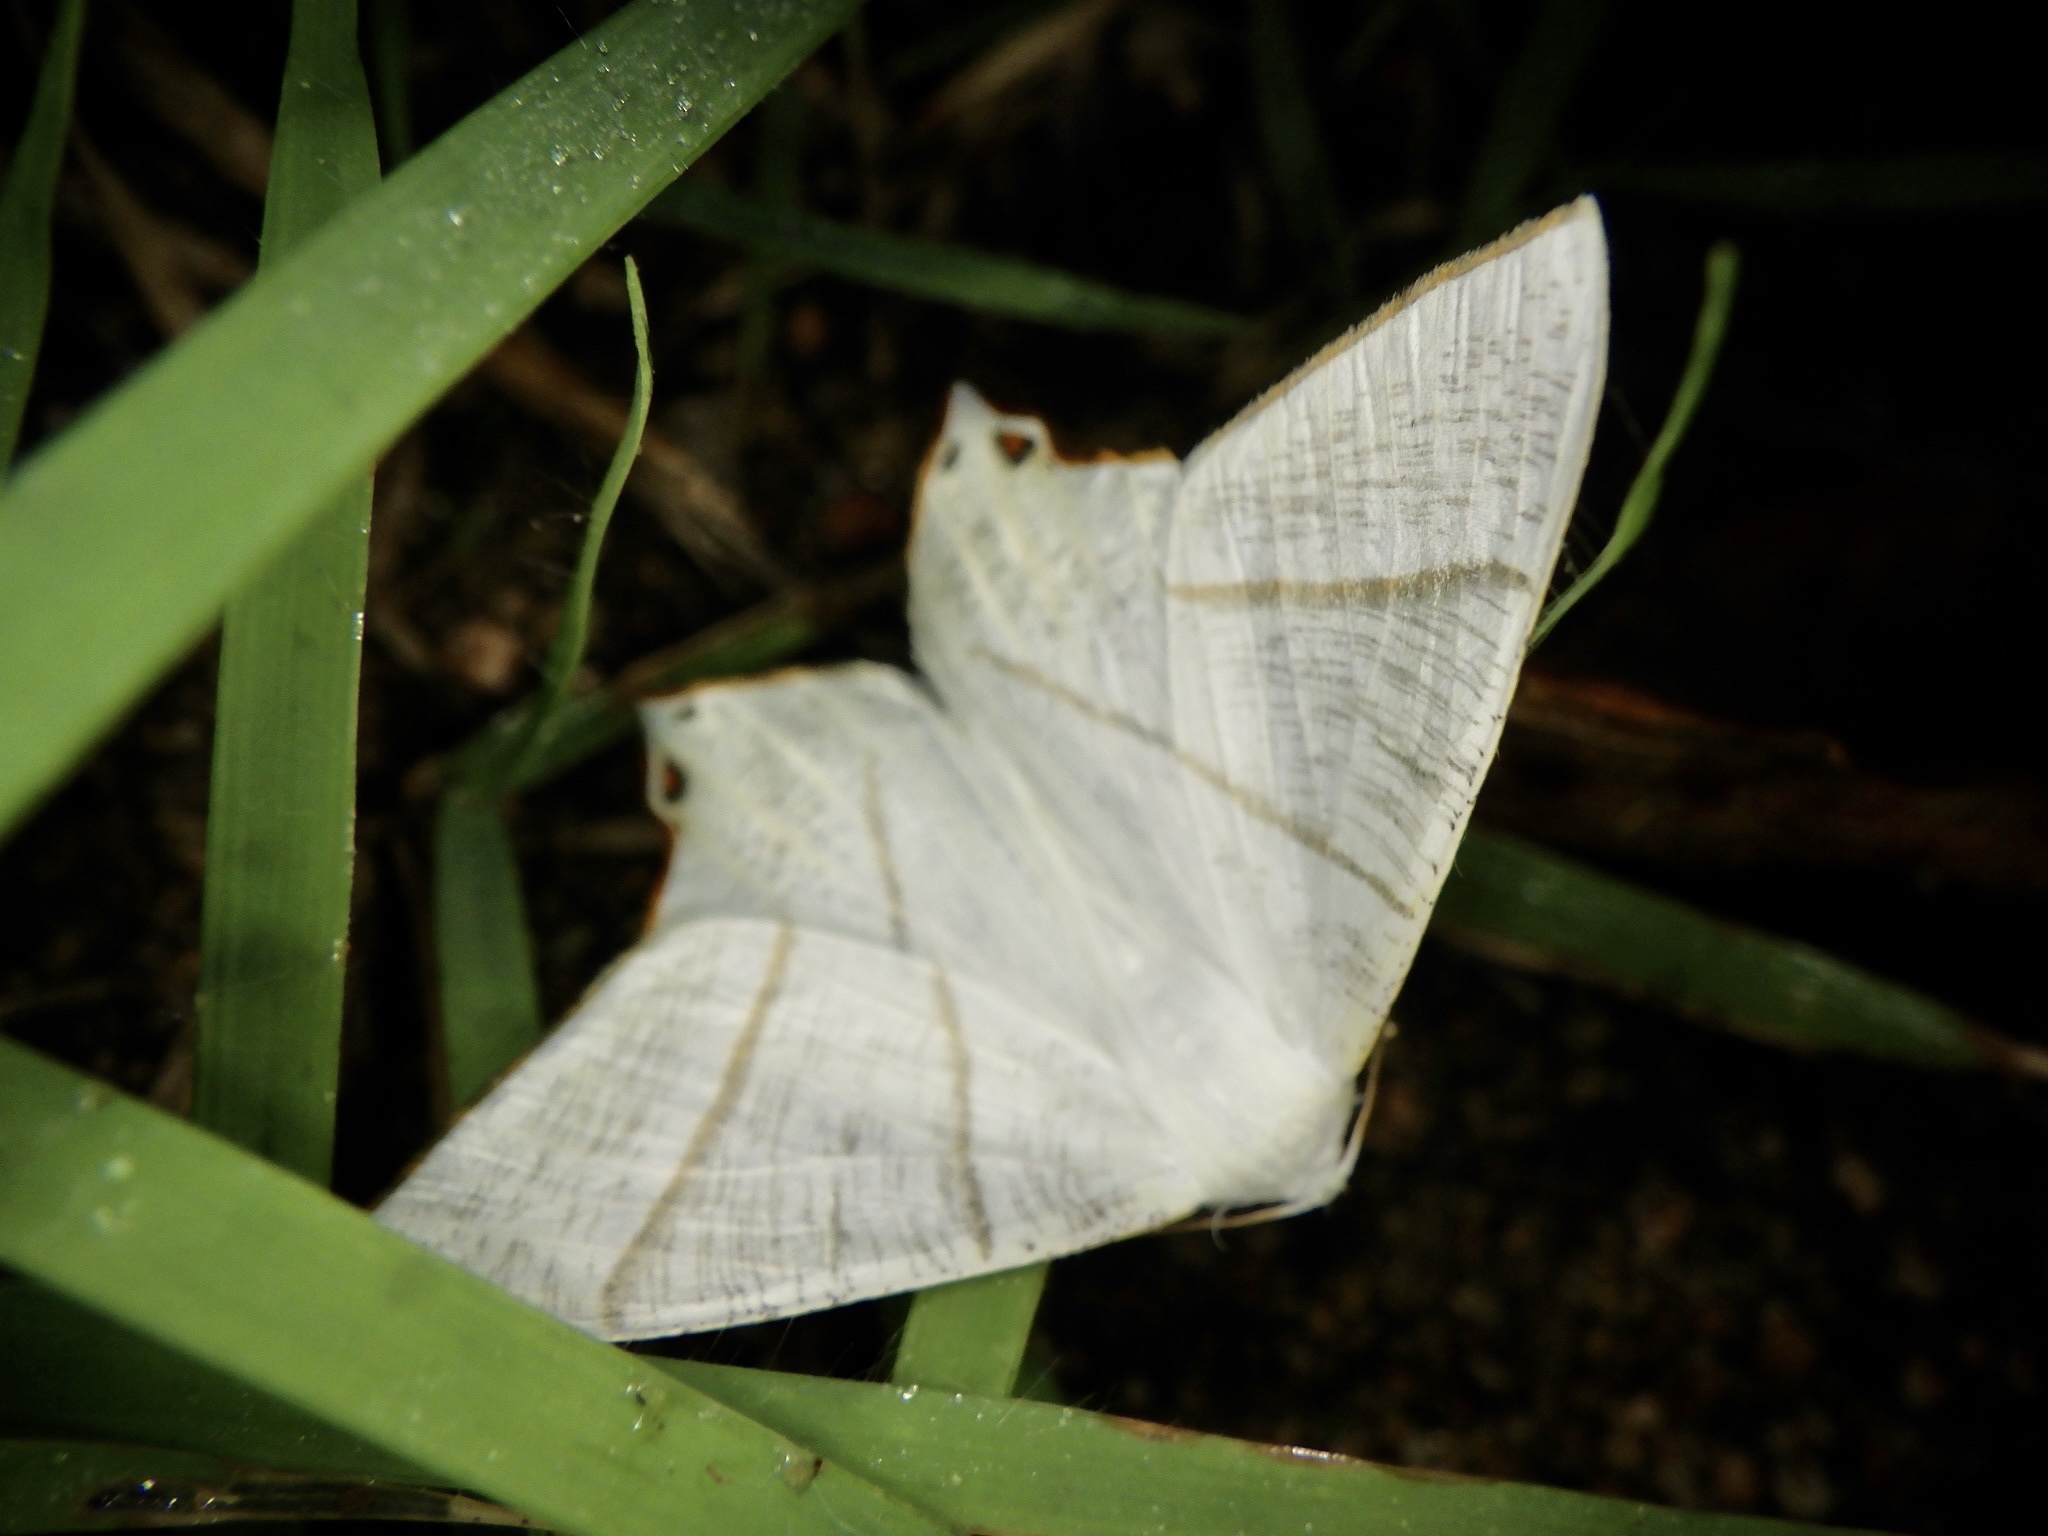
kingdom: Animalia
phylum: Arthropoda
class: Insecta
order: Lepidoptera
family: Geometridae
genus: Ourapteryx
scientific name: Ourapteryx nivea
